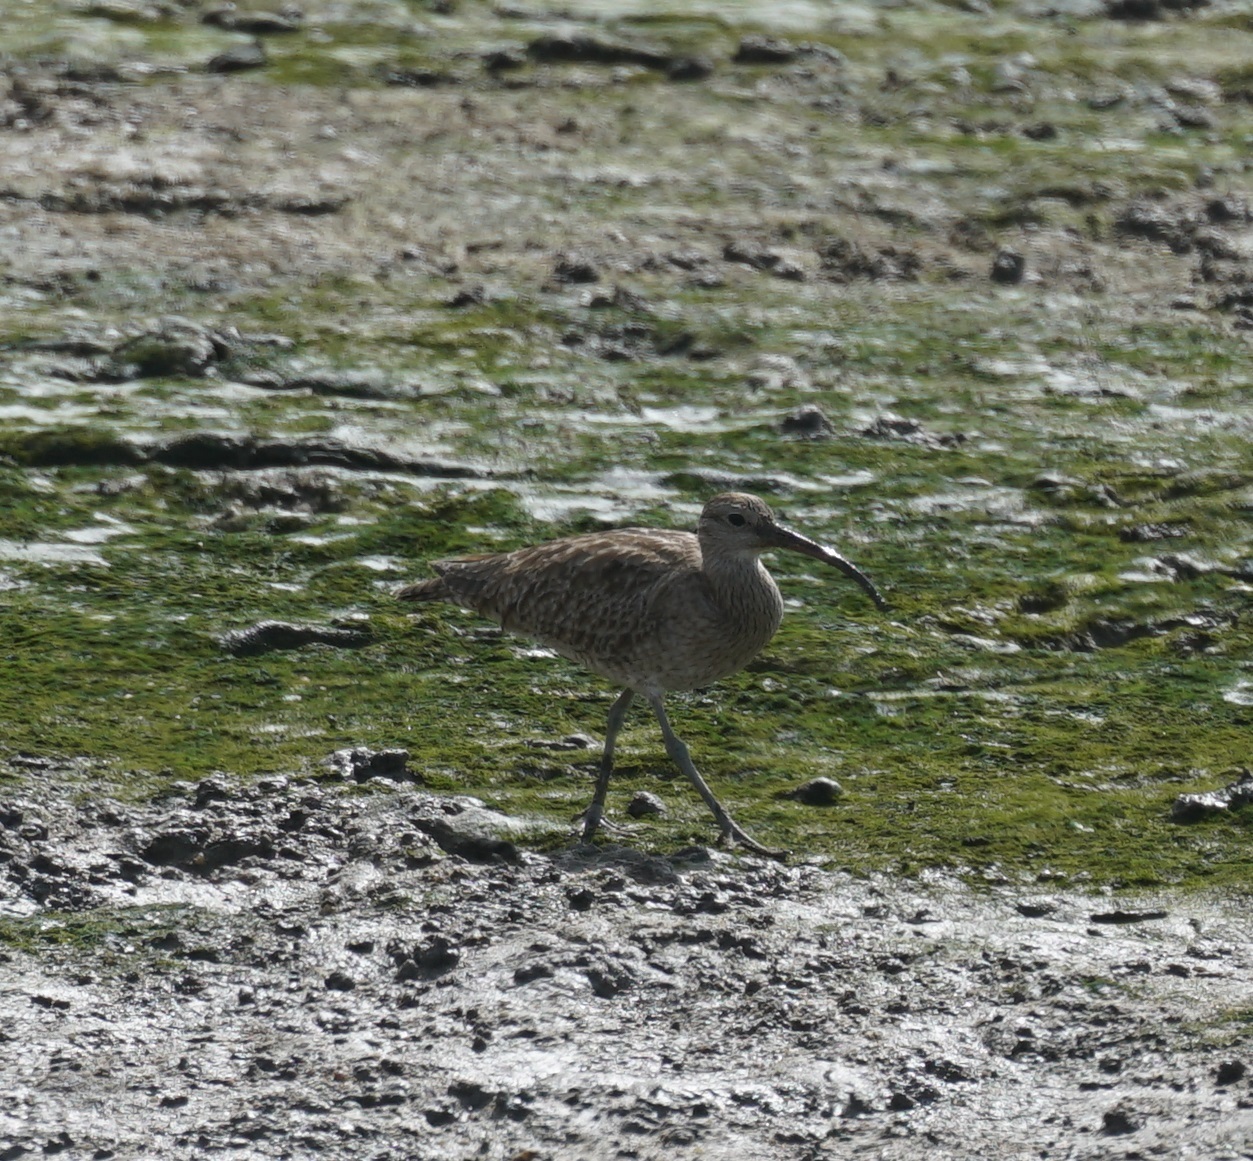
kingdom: Animalia
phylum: Chordata
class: Aves
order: Charadriiformes
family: Scolopacidae
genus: Numenius
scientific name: Numenius phaeopus
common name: Whimbrel
